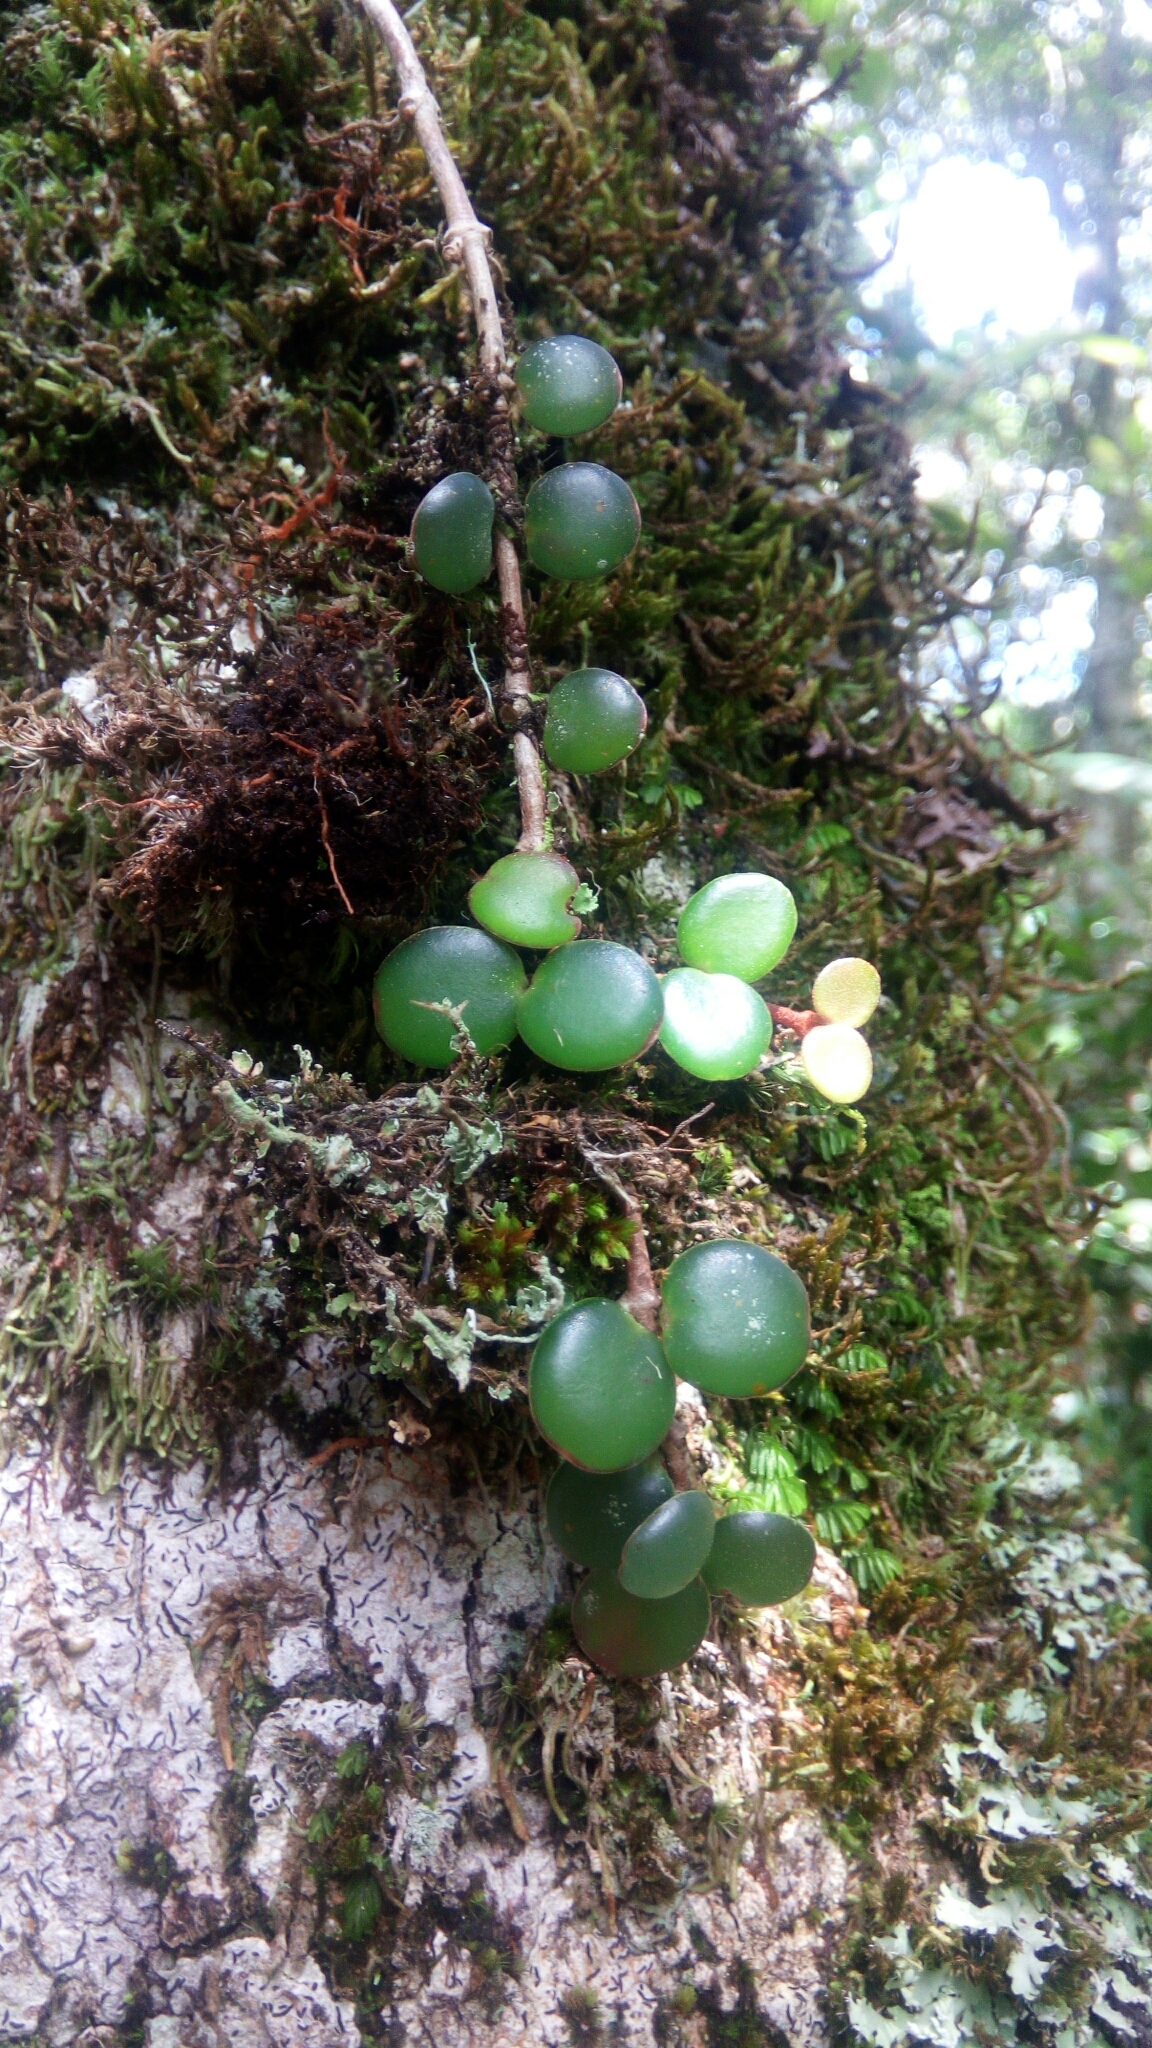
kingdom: Plantae
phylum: Tracheophyta
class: Magnoliopsida
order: Myrtales
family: Melastomataceae
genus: Medinilla
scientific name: Medinilla sedifolia
